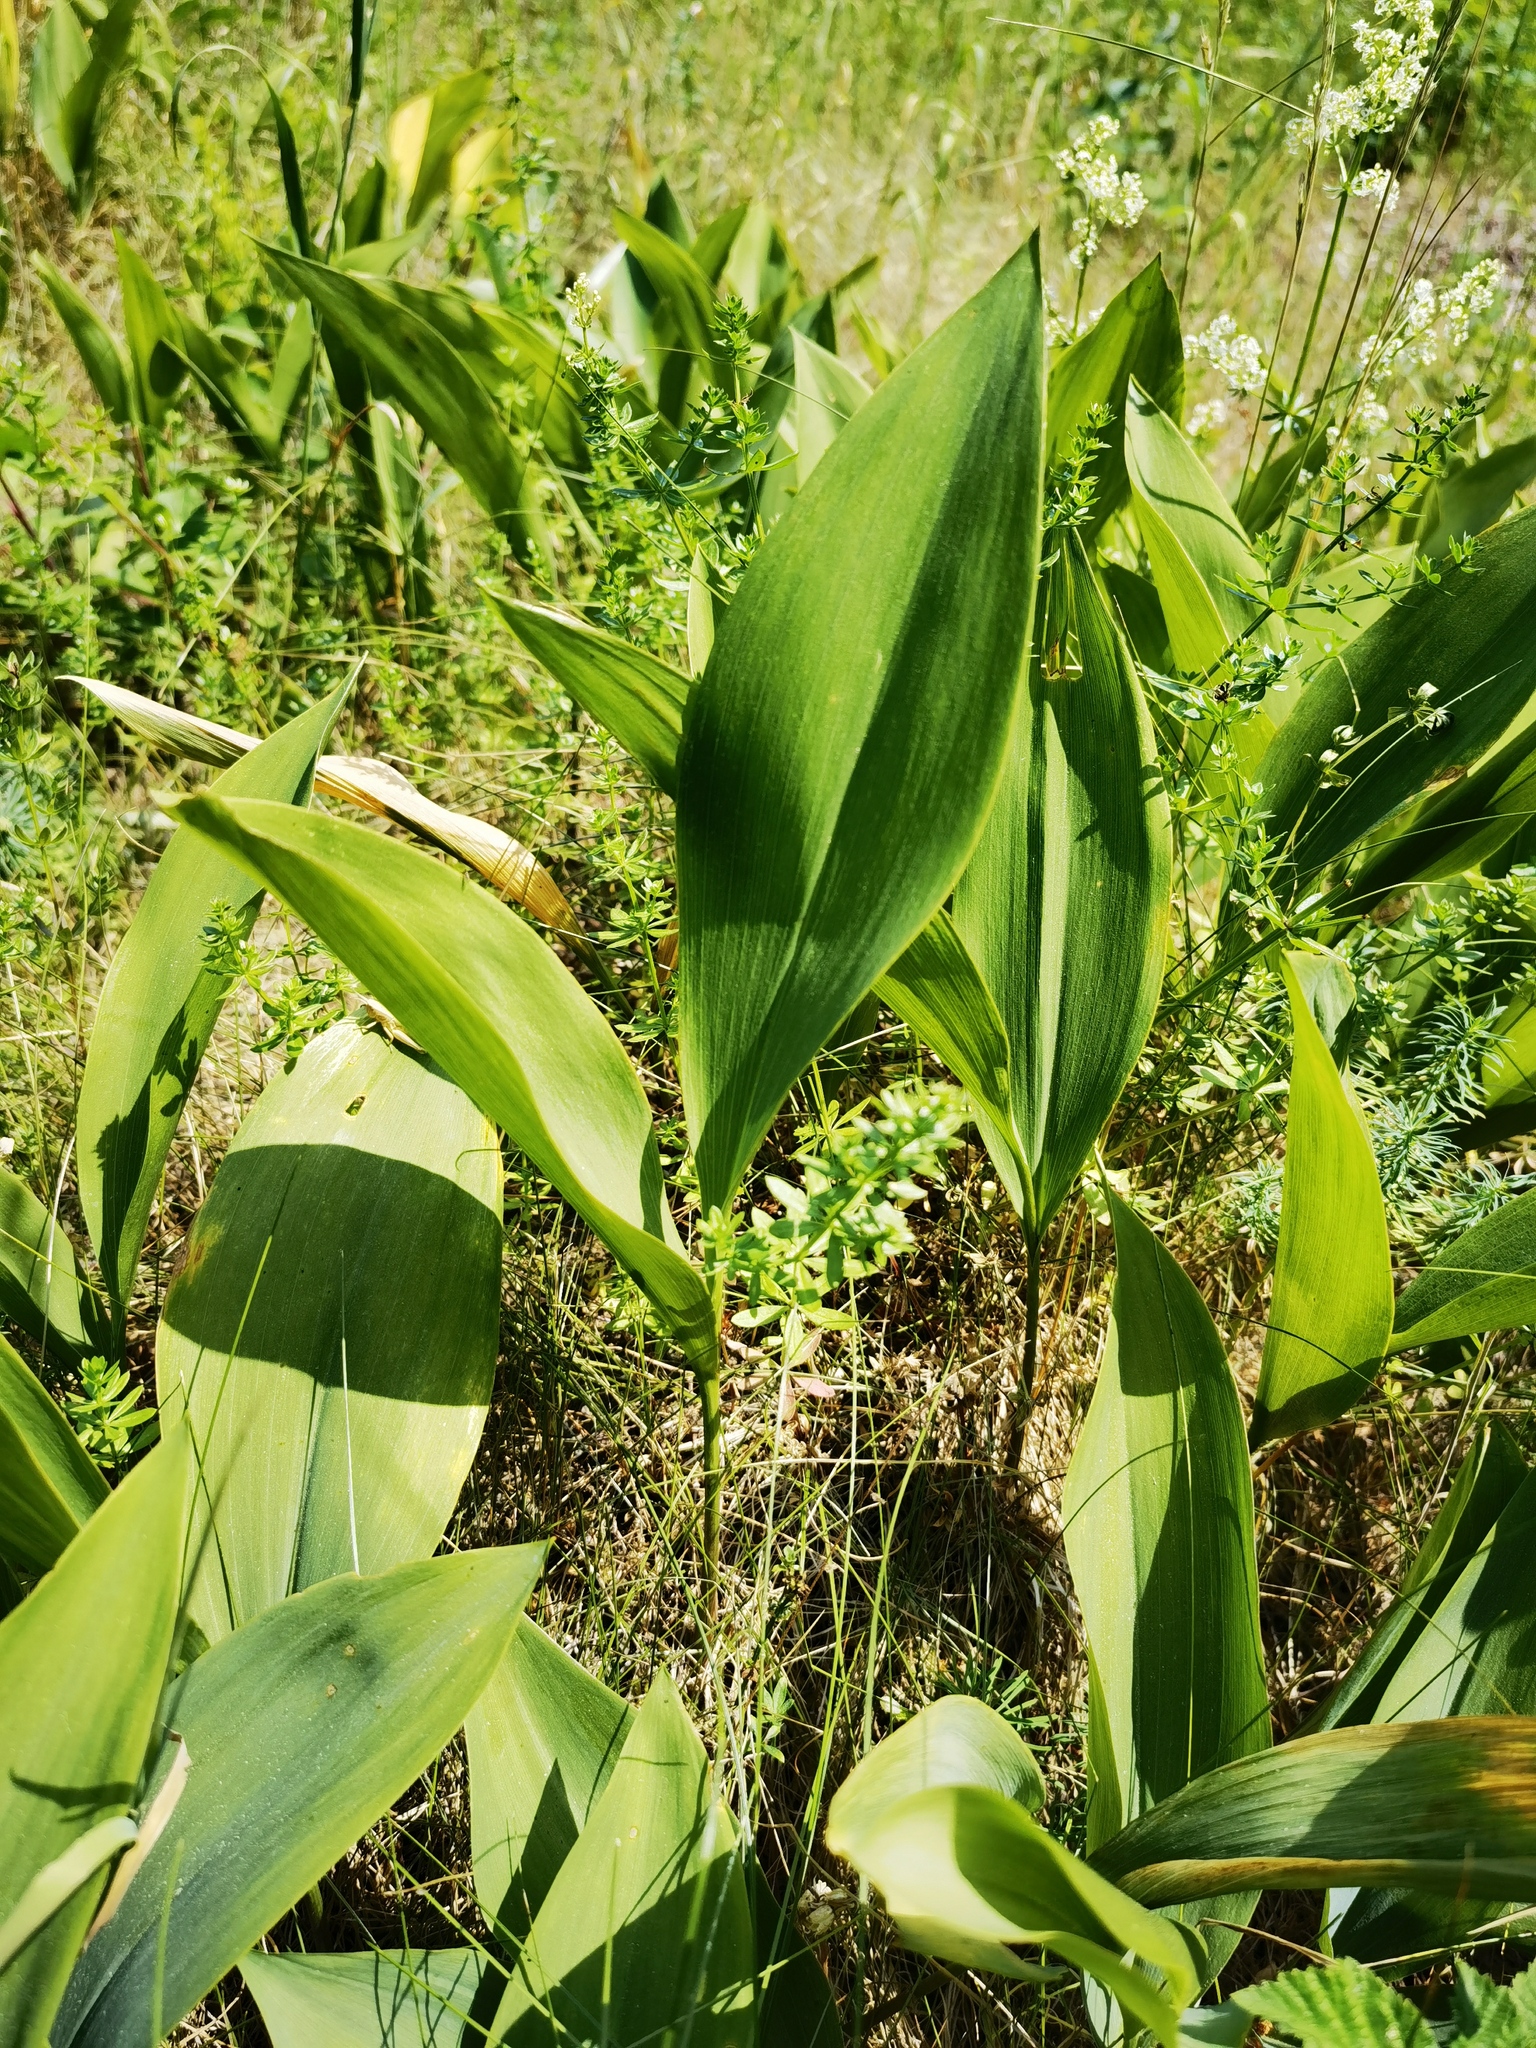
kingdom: Plantae
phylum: Tracheophyta
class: Liliopsida
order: Asparagales
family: Asparagaceae
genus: Convallaria
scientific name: Convallaria majalis
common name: Lily-of-the-valley
